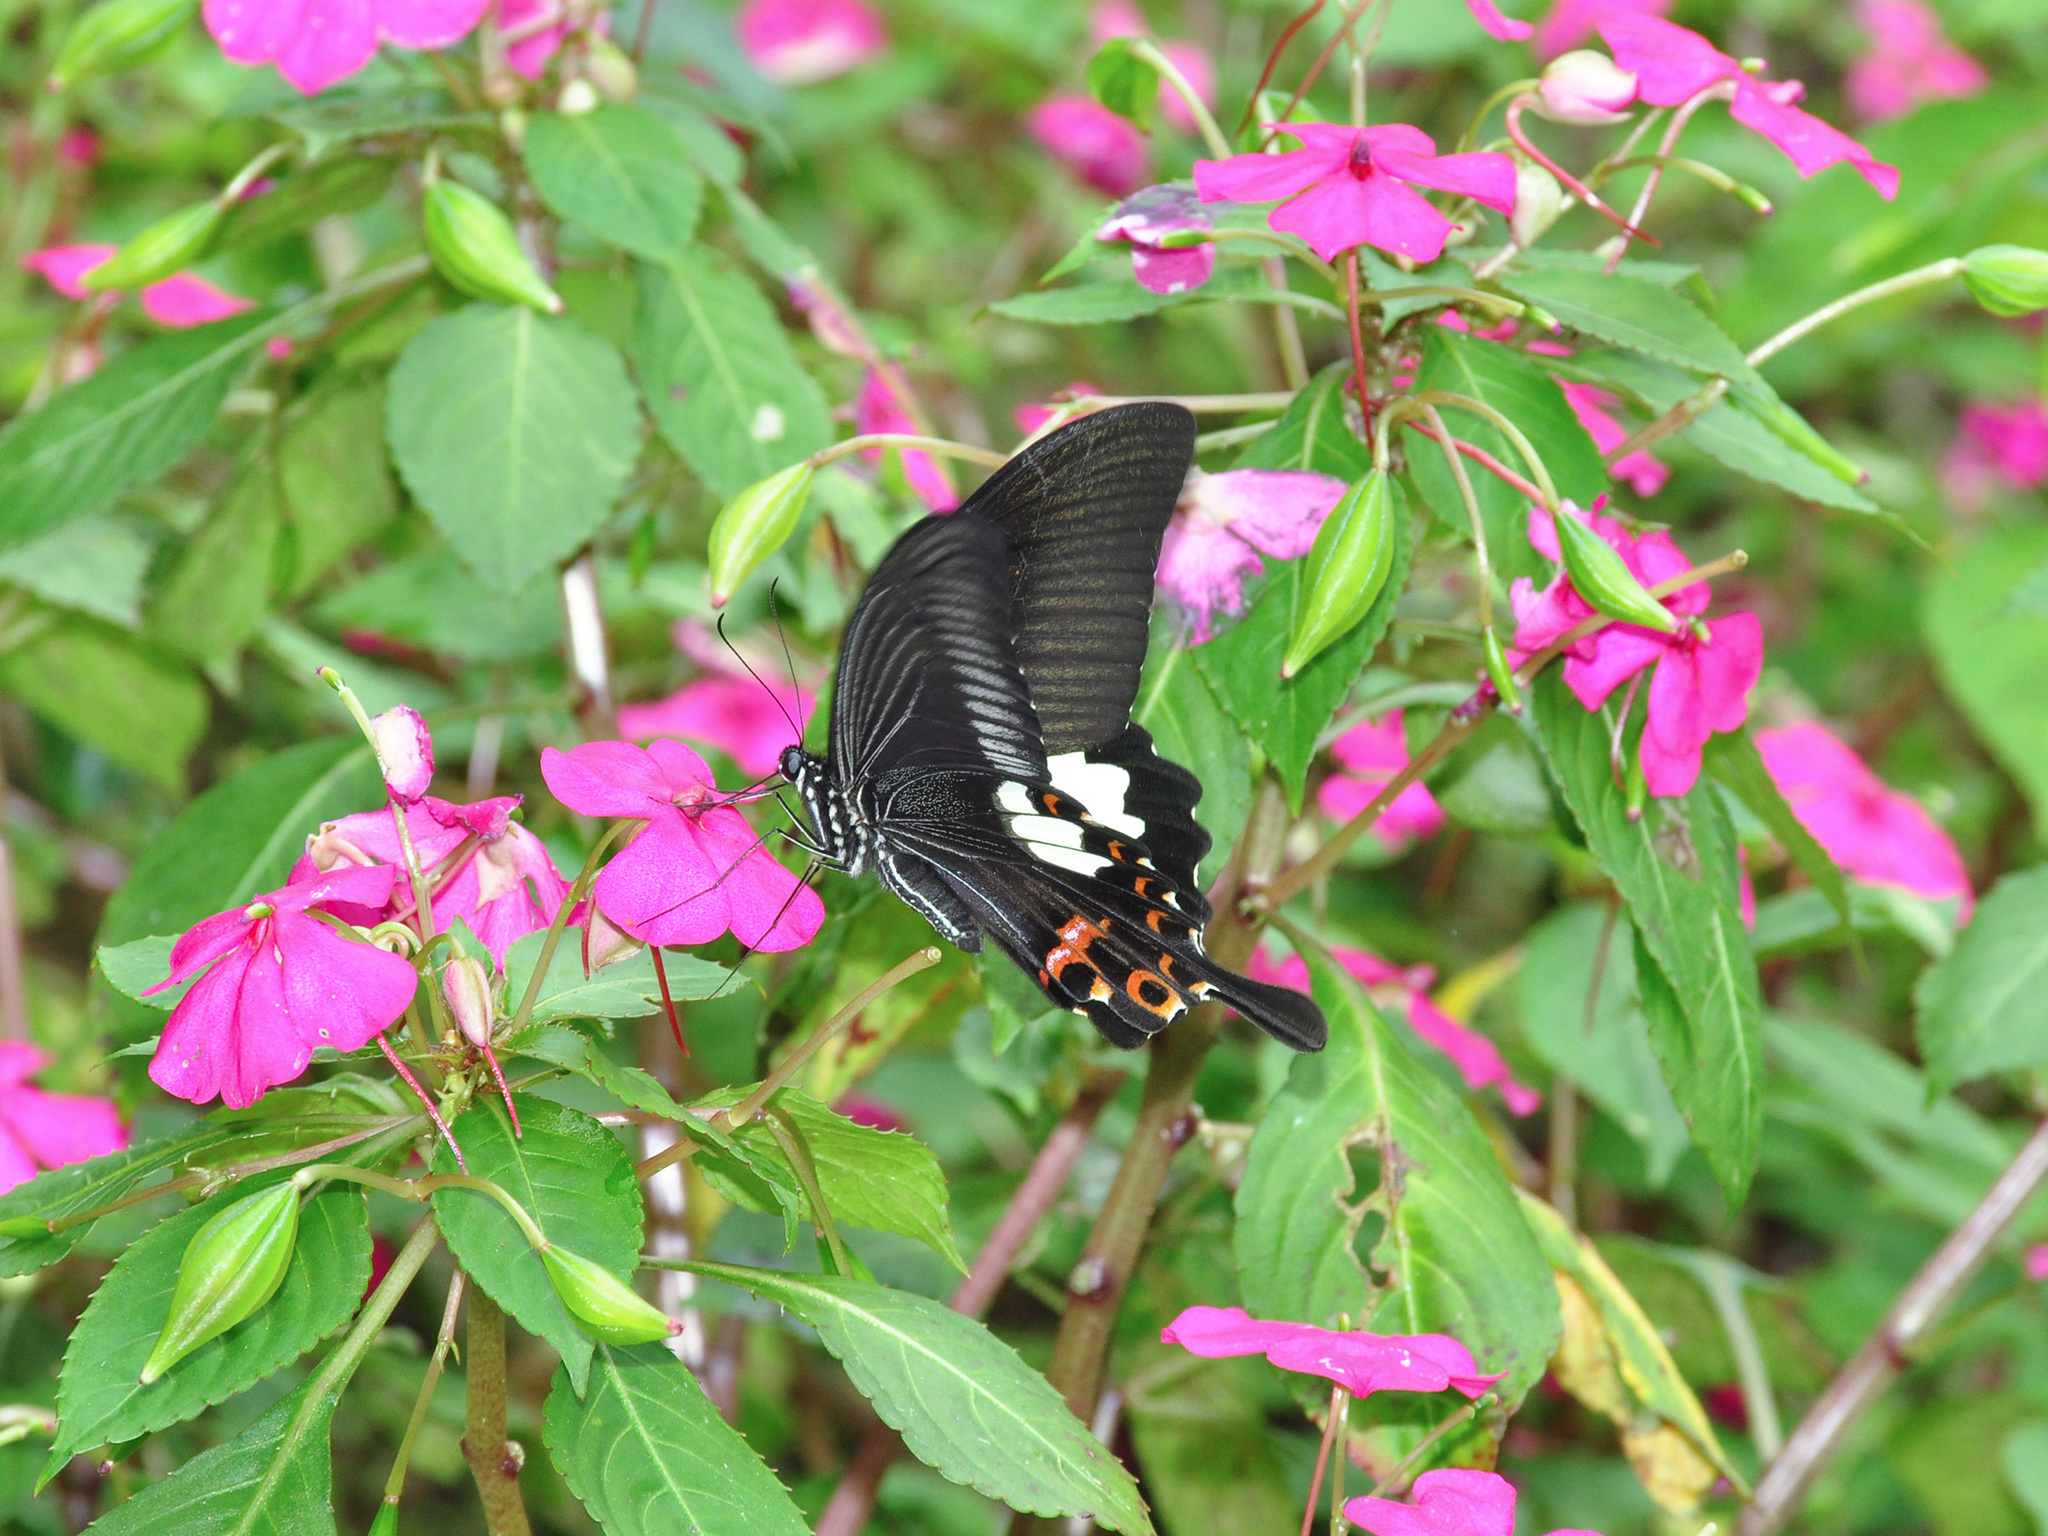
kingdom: Animalia
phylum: Arthropoda
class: Insecta
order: Lepidoptera
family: Papilionidae
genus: Papilio
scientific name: Papilio helenus
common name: Red helen
